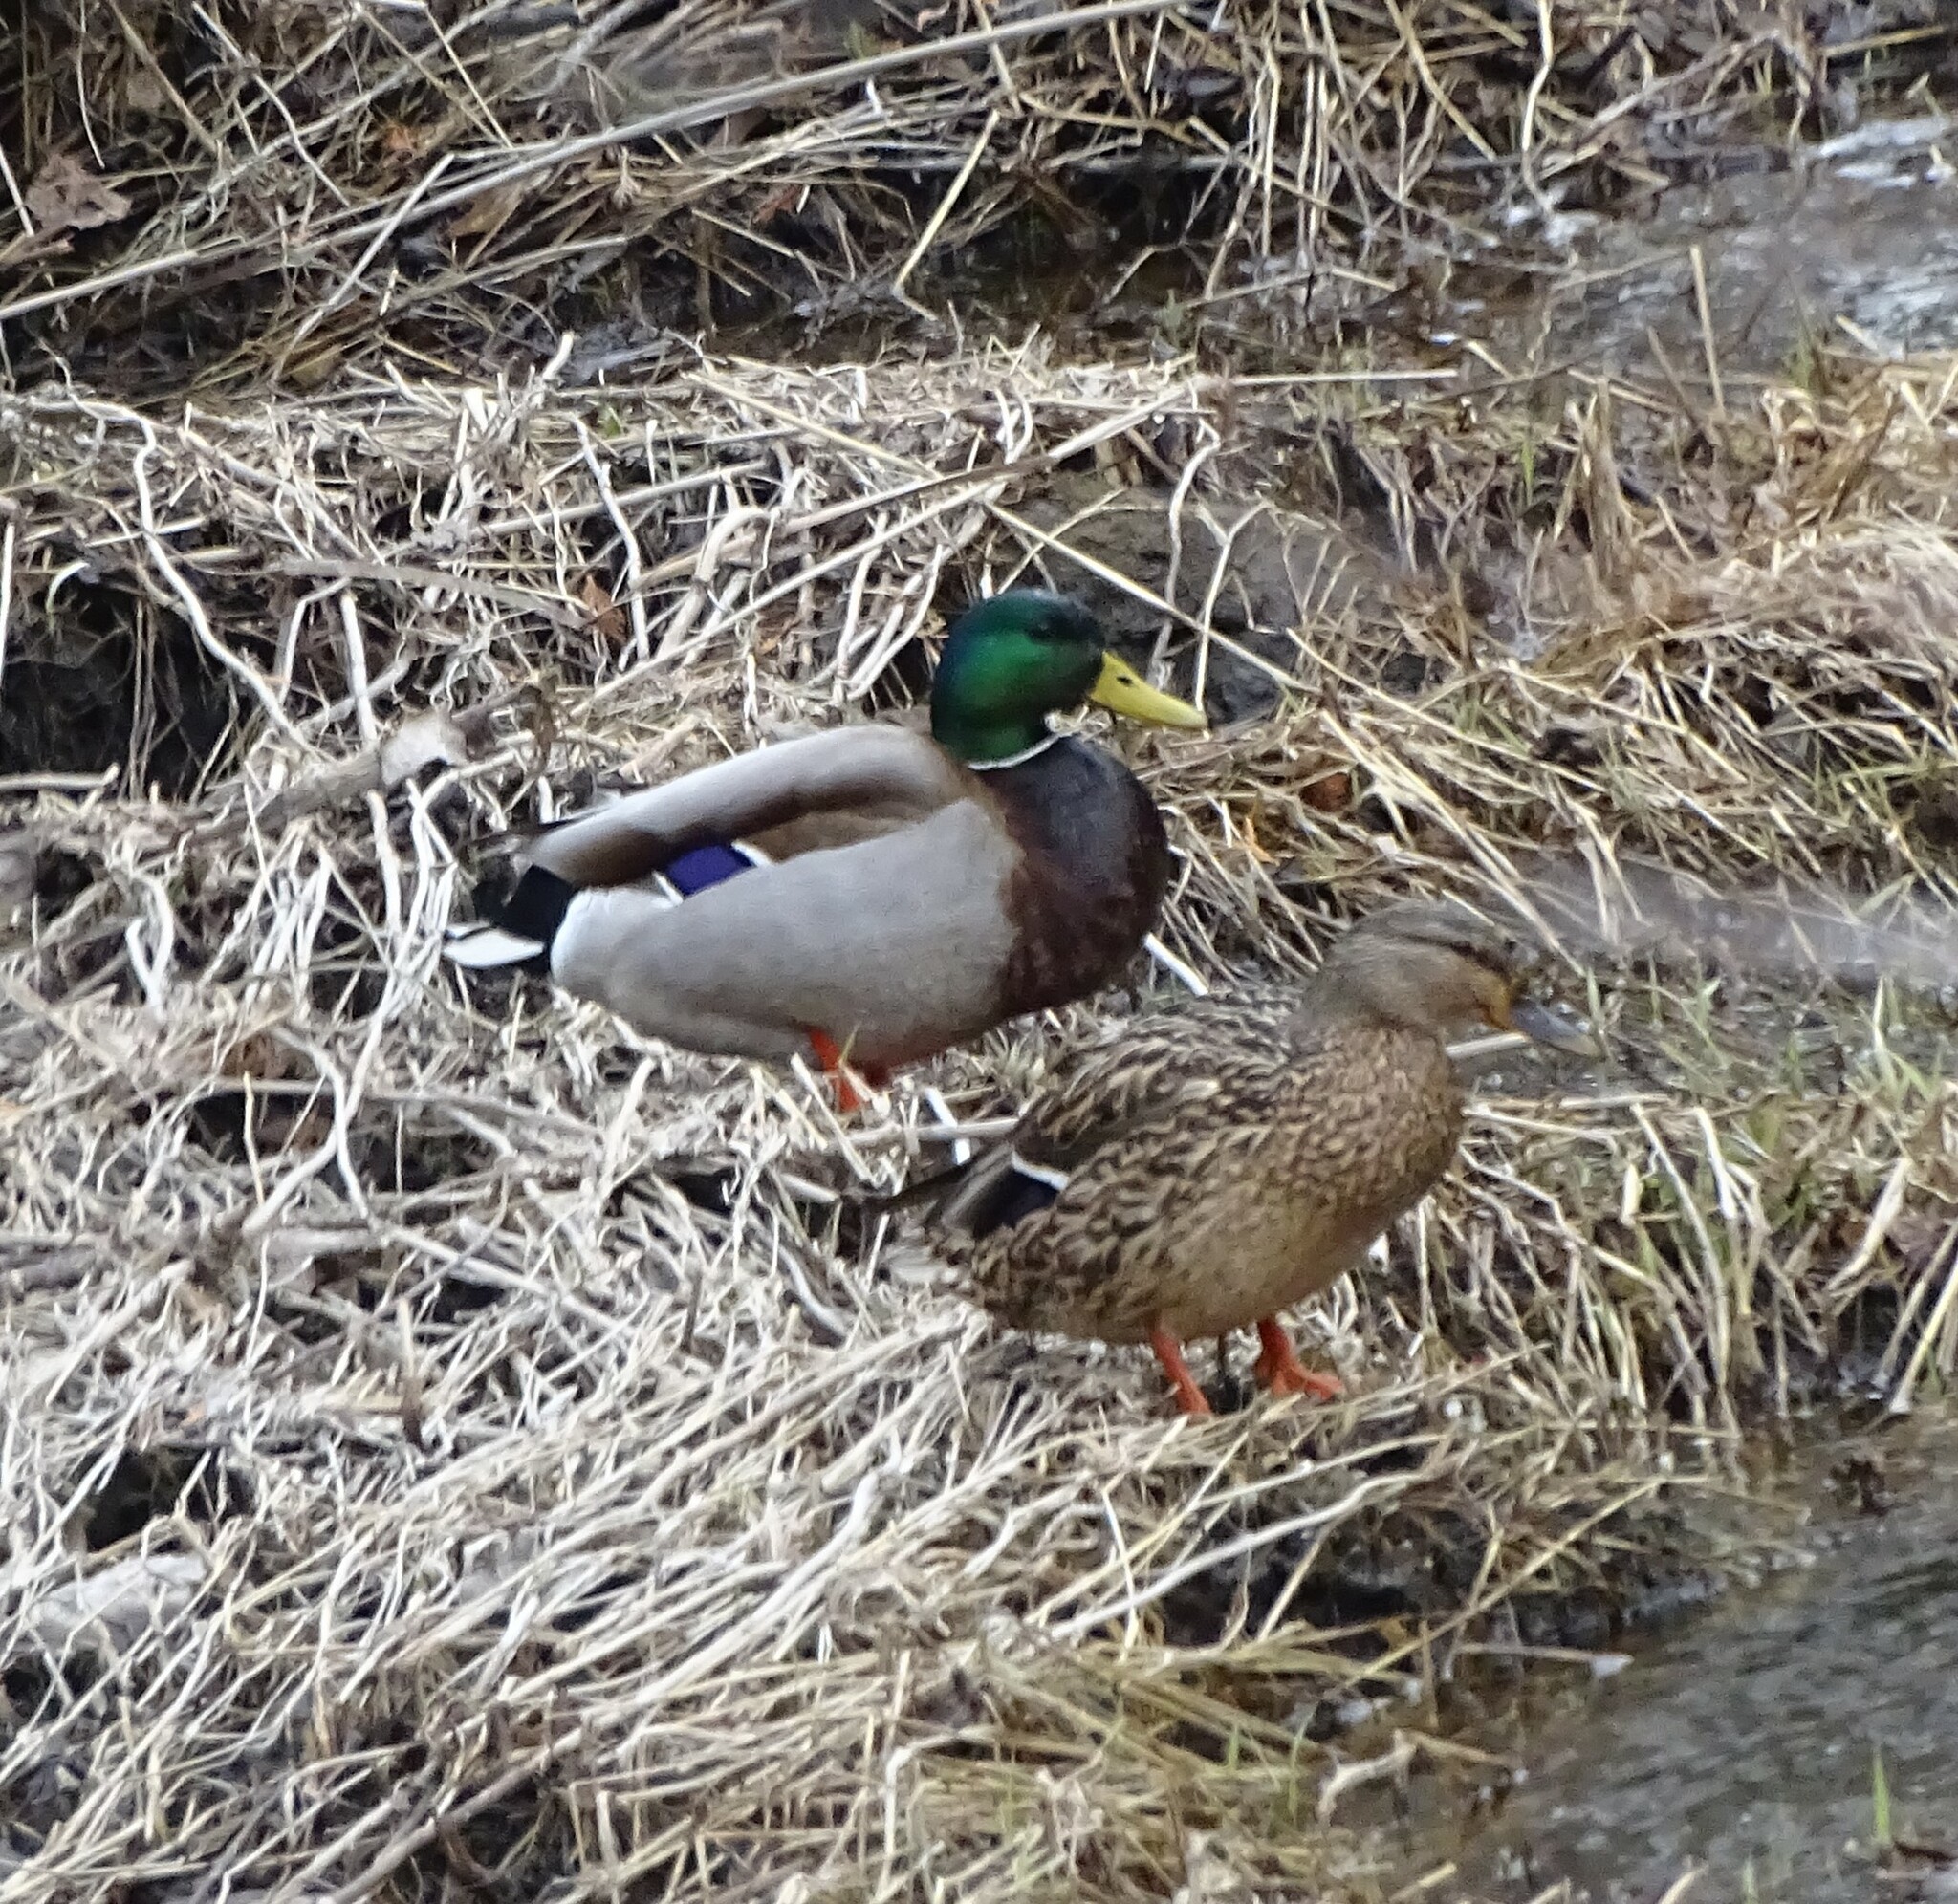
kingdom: Animalia
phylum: Chordata
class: Aves
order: Anseriformes
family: Anatidae
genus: Anas
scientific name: Anas platyrhynchos
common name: Mallard
